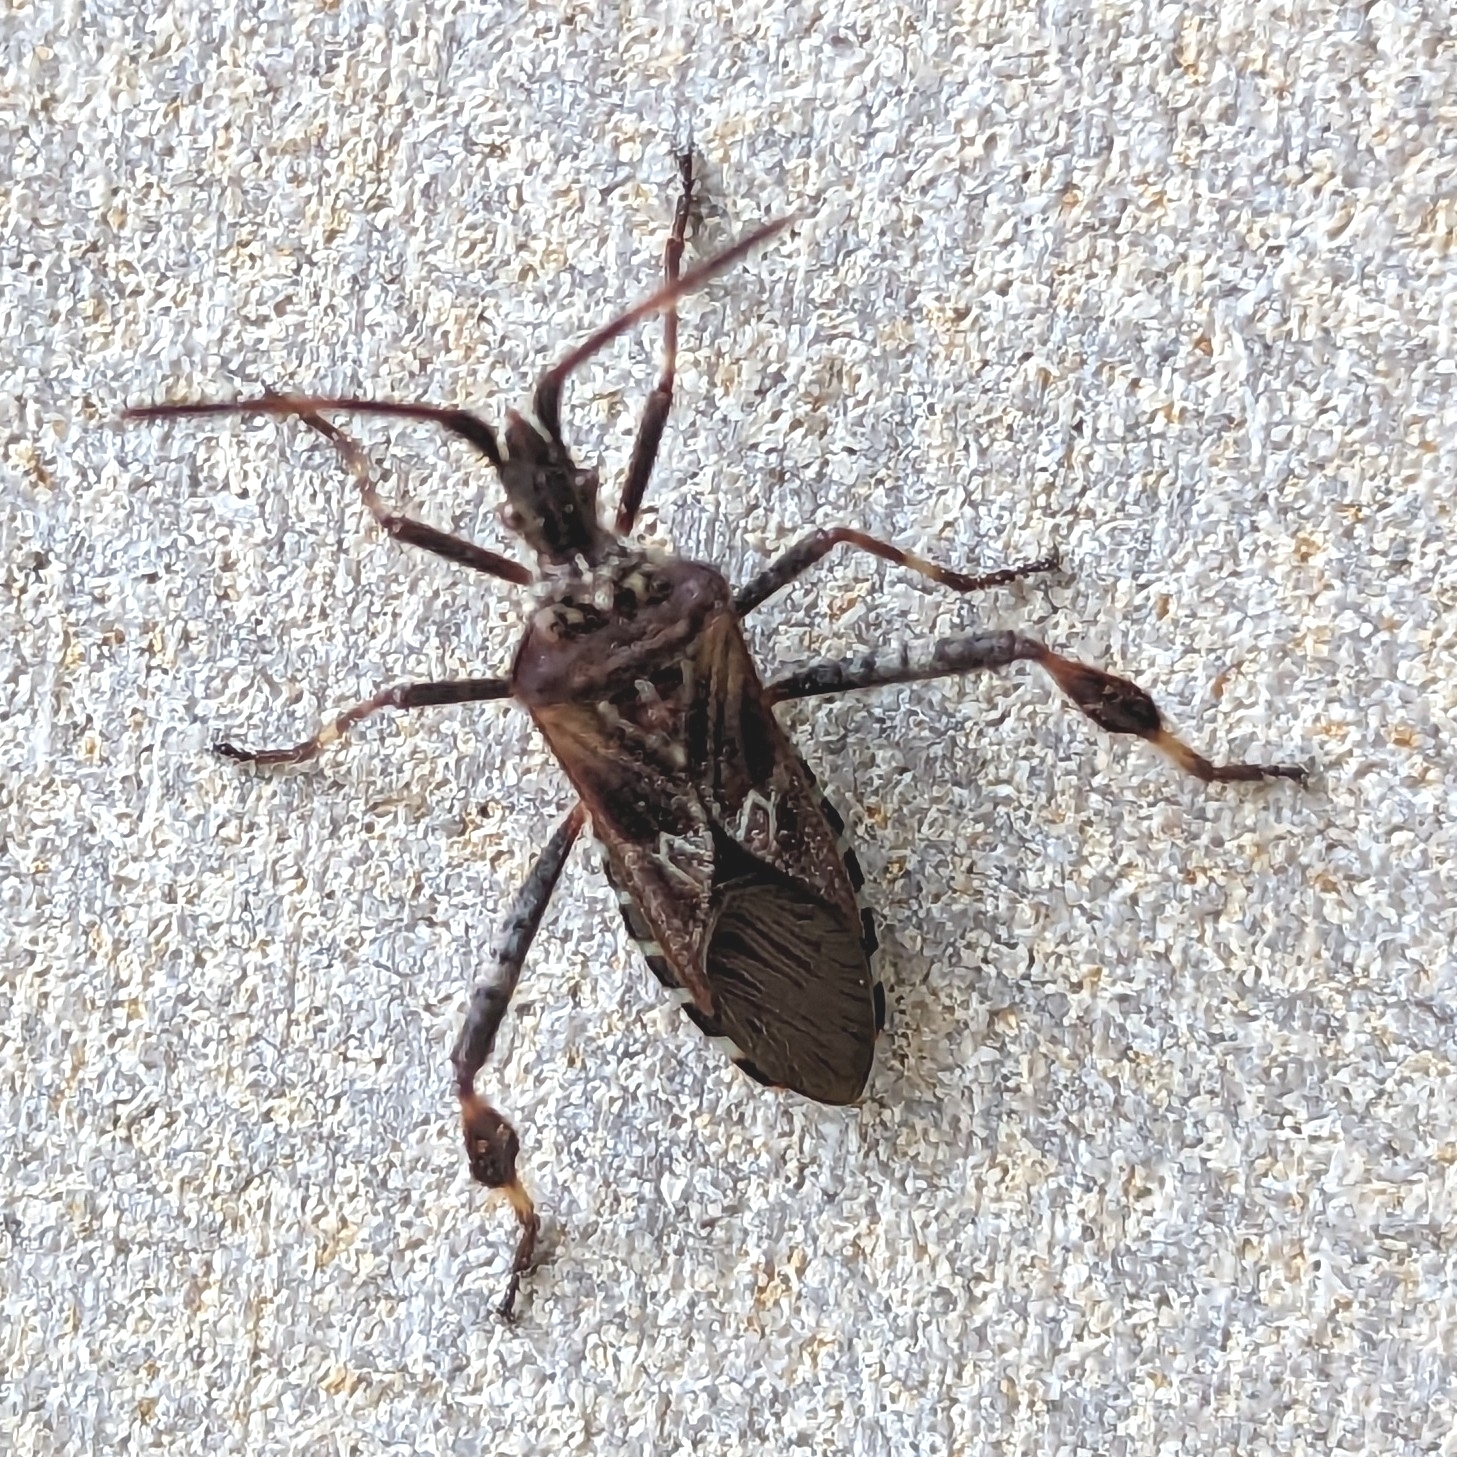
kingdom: Animalia
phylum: Arthropoda
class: Insecta
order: Hemiptera
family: Coreidae
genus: Leptoglossus
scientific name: Leptoglossus occidentalis
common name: Western conifer-seed bug
